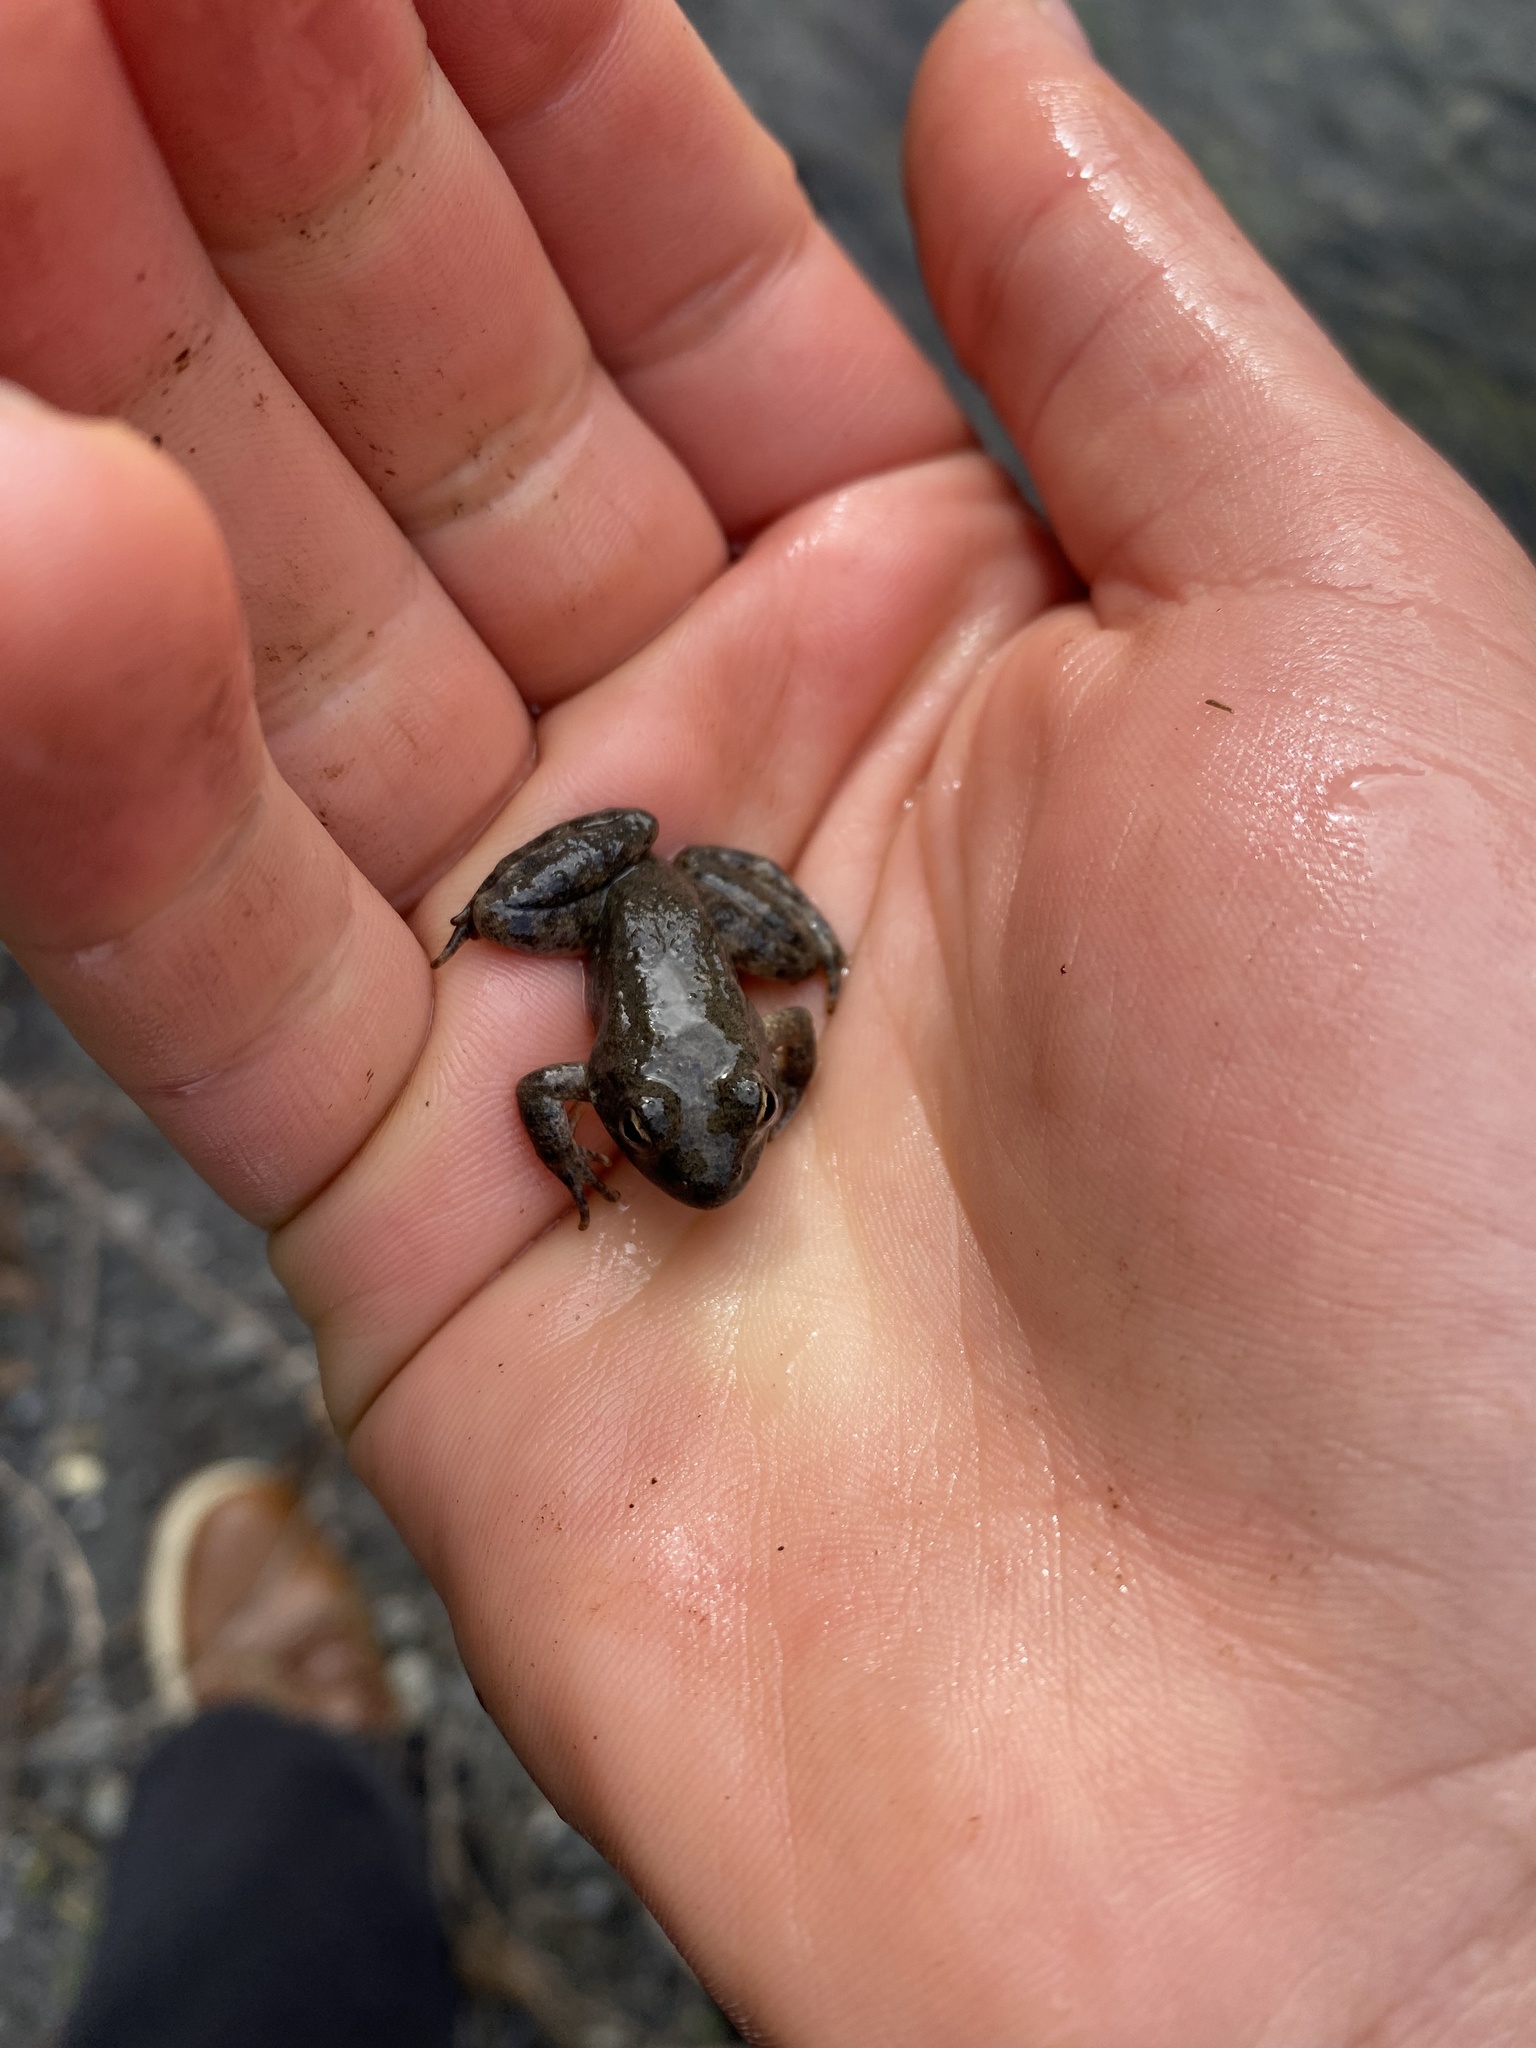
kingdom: Animalia
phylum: Chordata
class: Amphibia
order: Anura
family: Ranidae
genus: Rana
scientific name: Rana boylii
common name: Foothill yellow-legged frog
